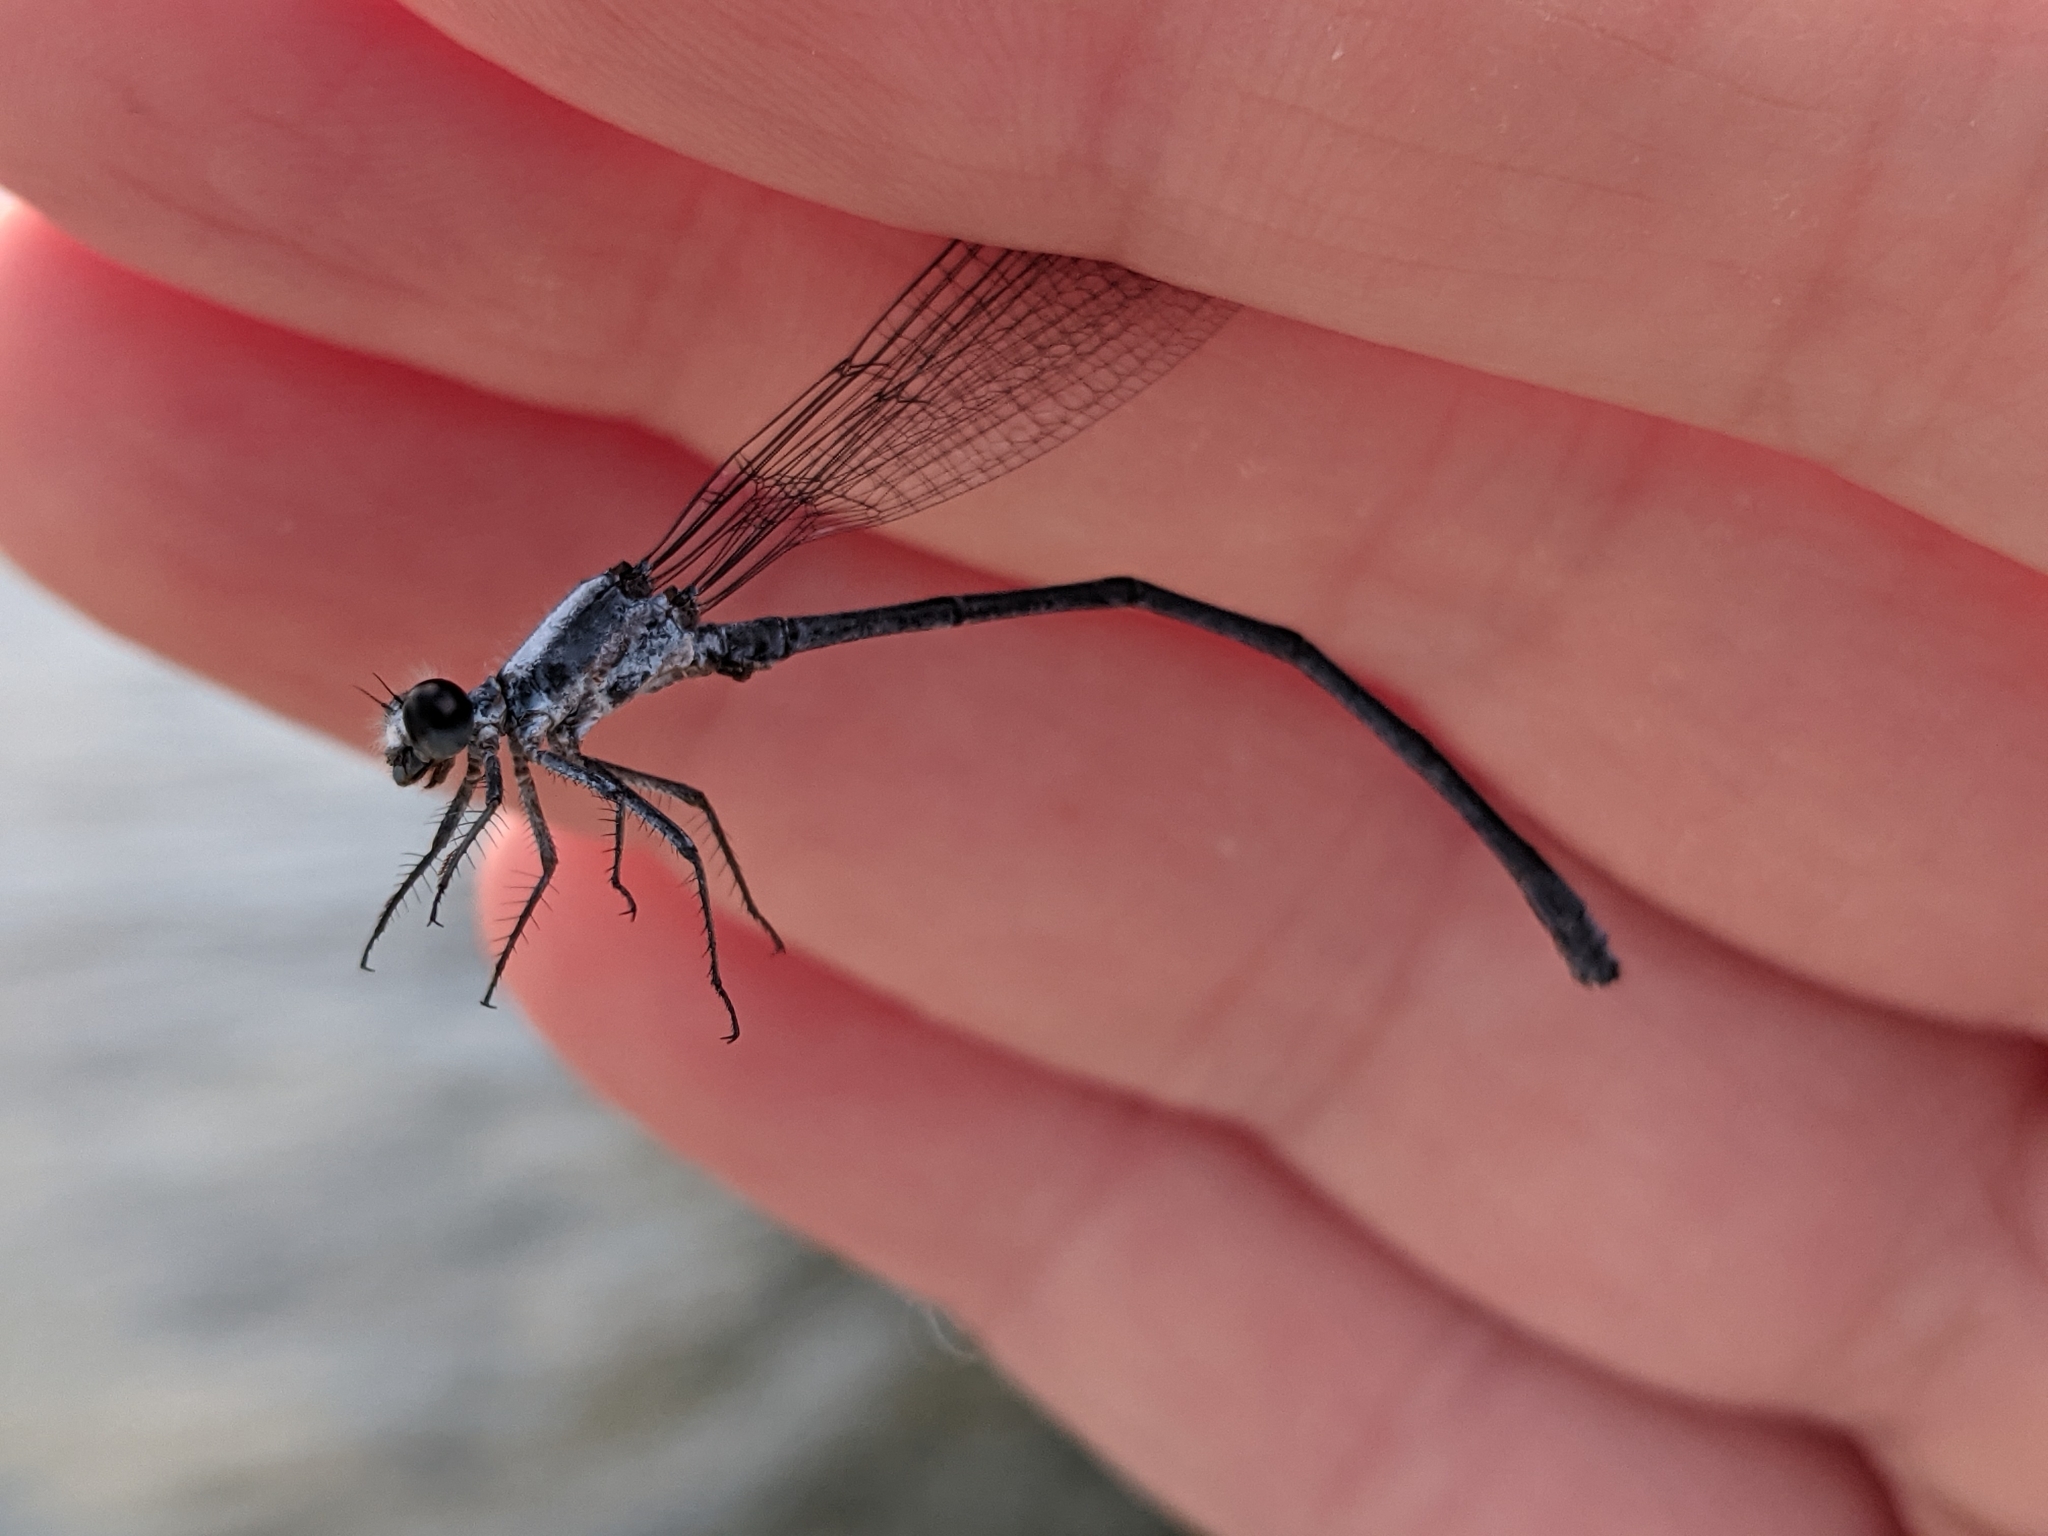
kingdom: Animalia
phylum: Arthropoda
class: Insecta
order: Odonata
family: Coenagrionidae
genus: Argia
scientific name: Argia moesta
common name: Powdered dancer
